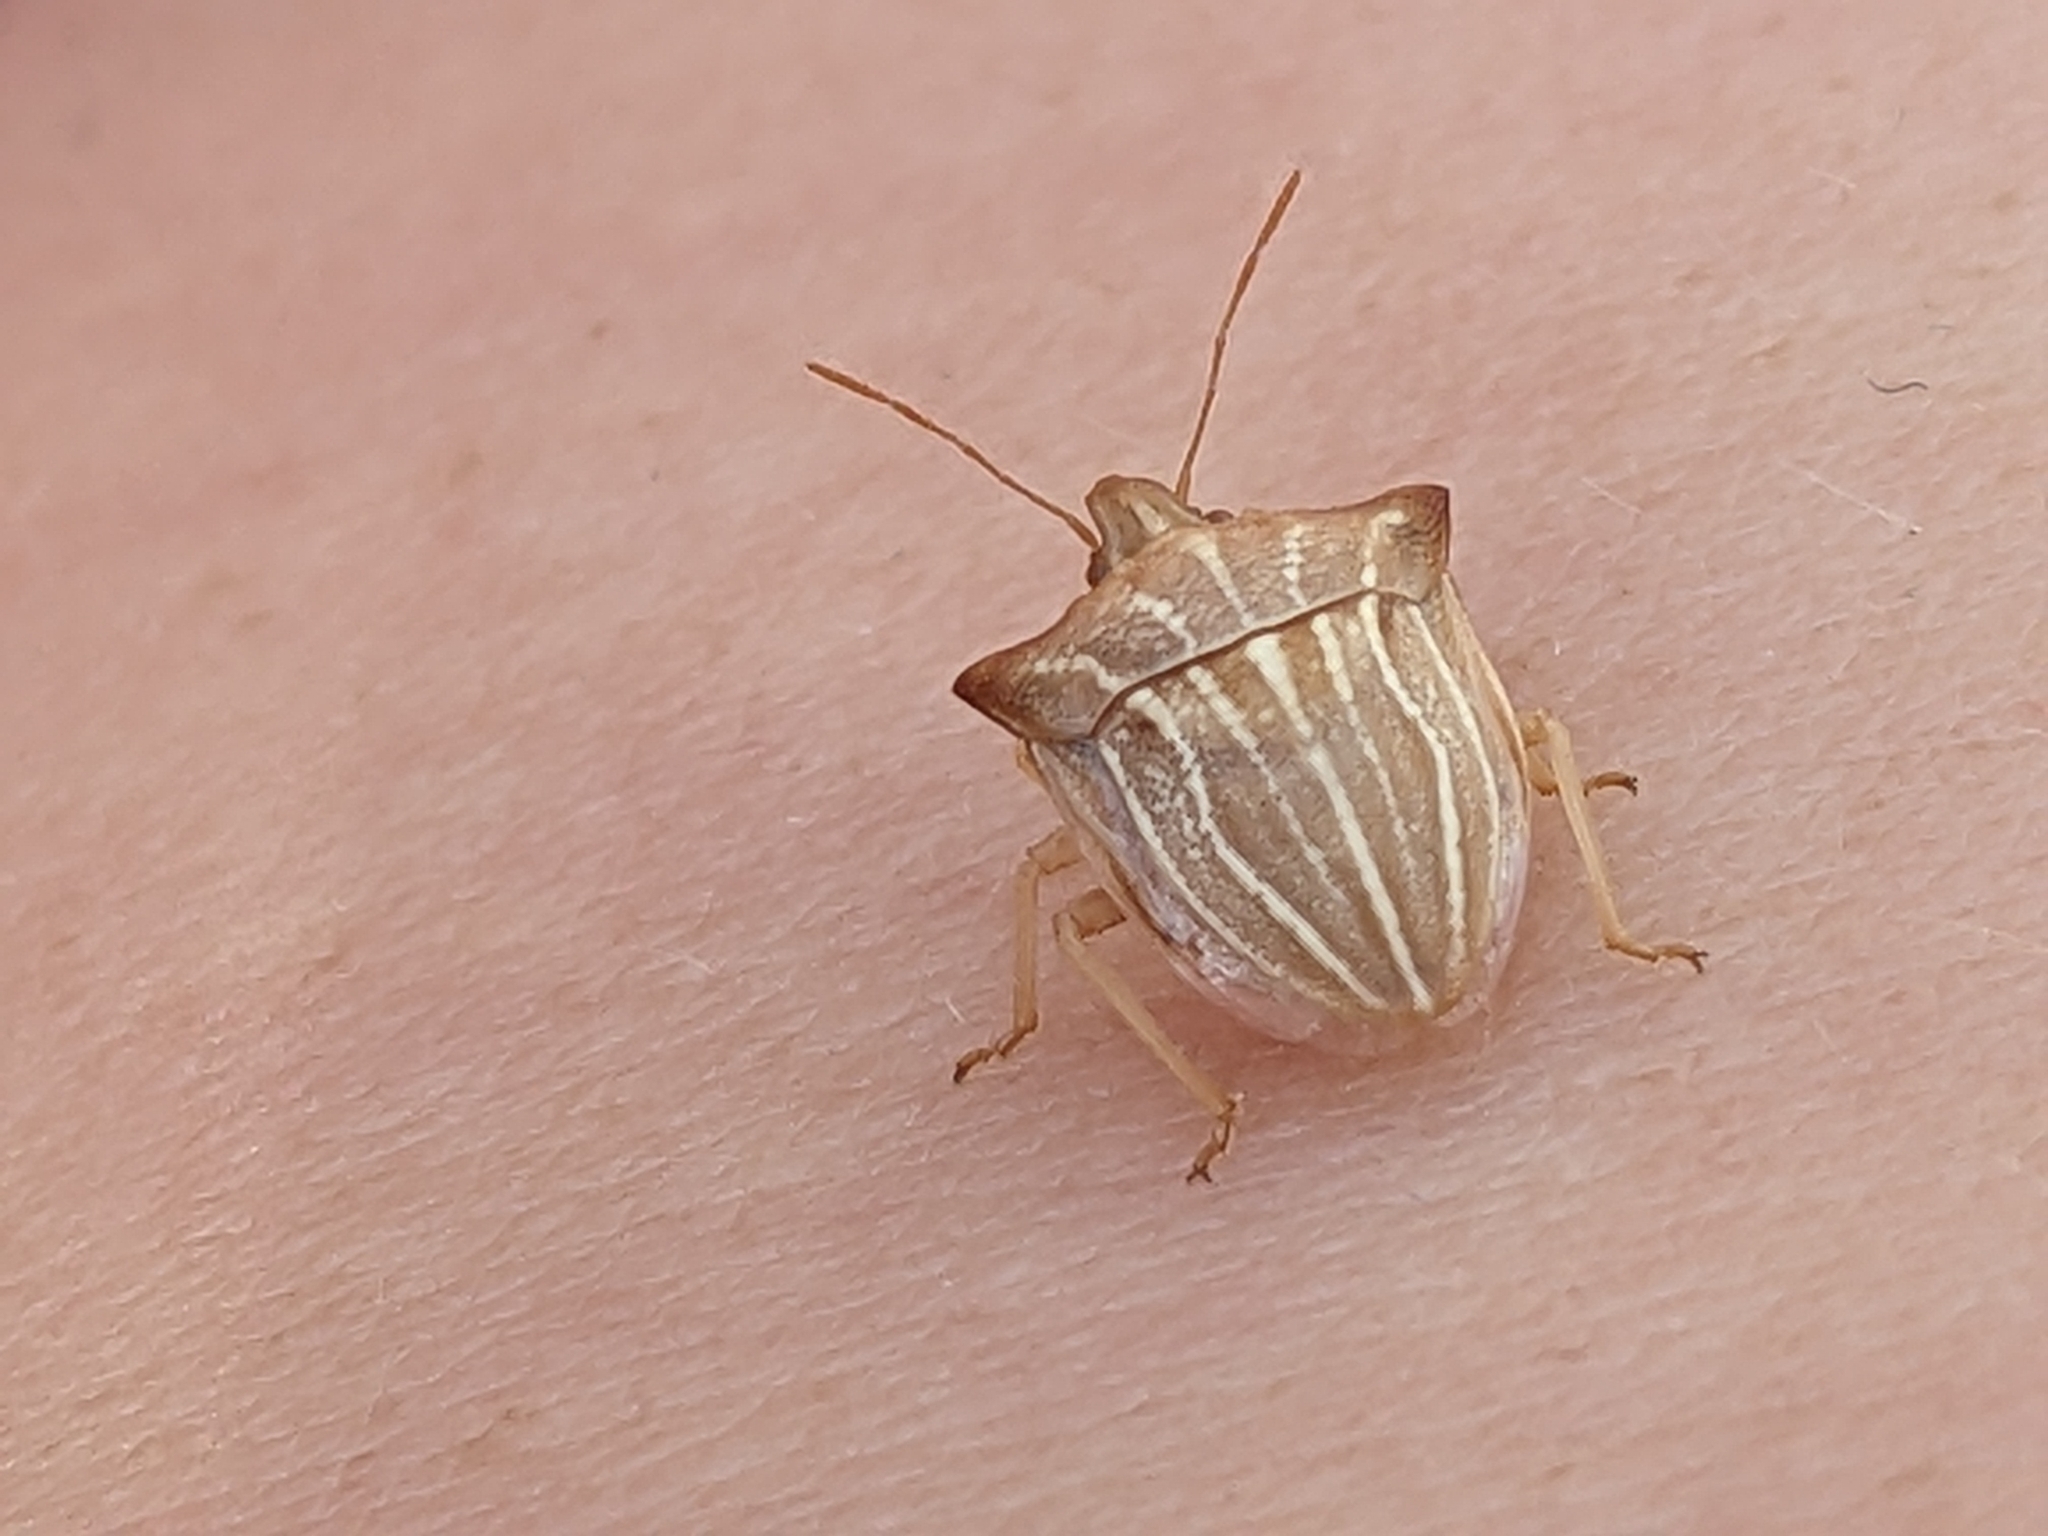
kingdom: Animalia
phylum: Arthropoda
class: Insecta
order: Hemiptera
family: Pentatomidae
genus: Ancyrosoma
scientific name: Ancyrosoma leucogrammes
